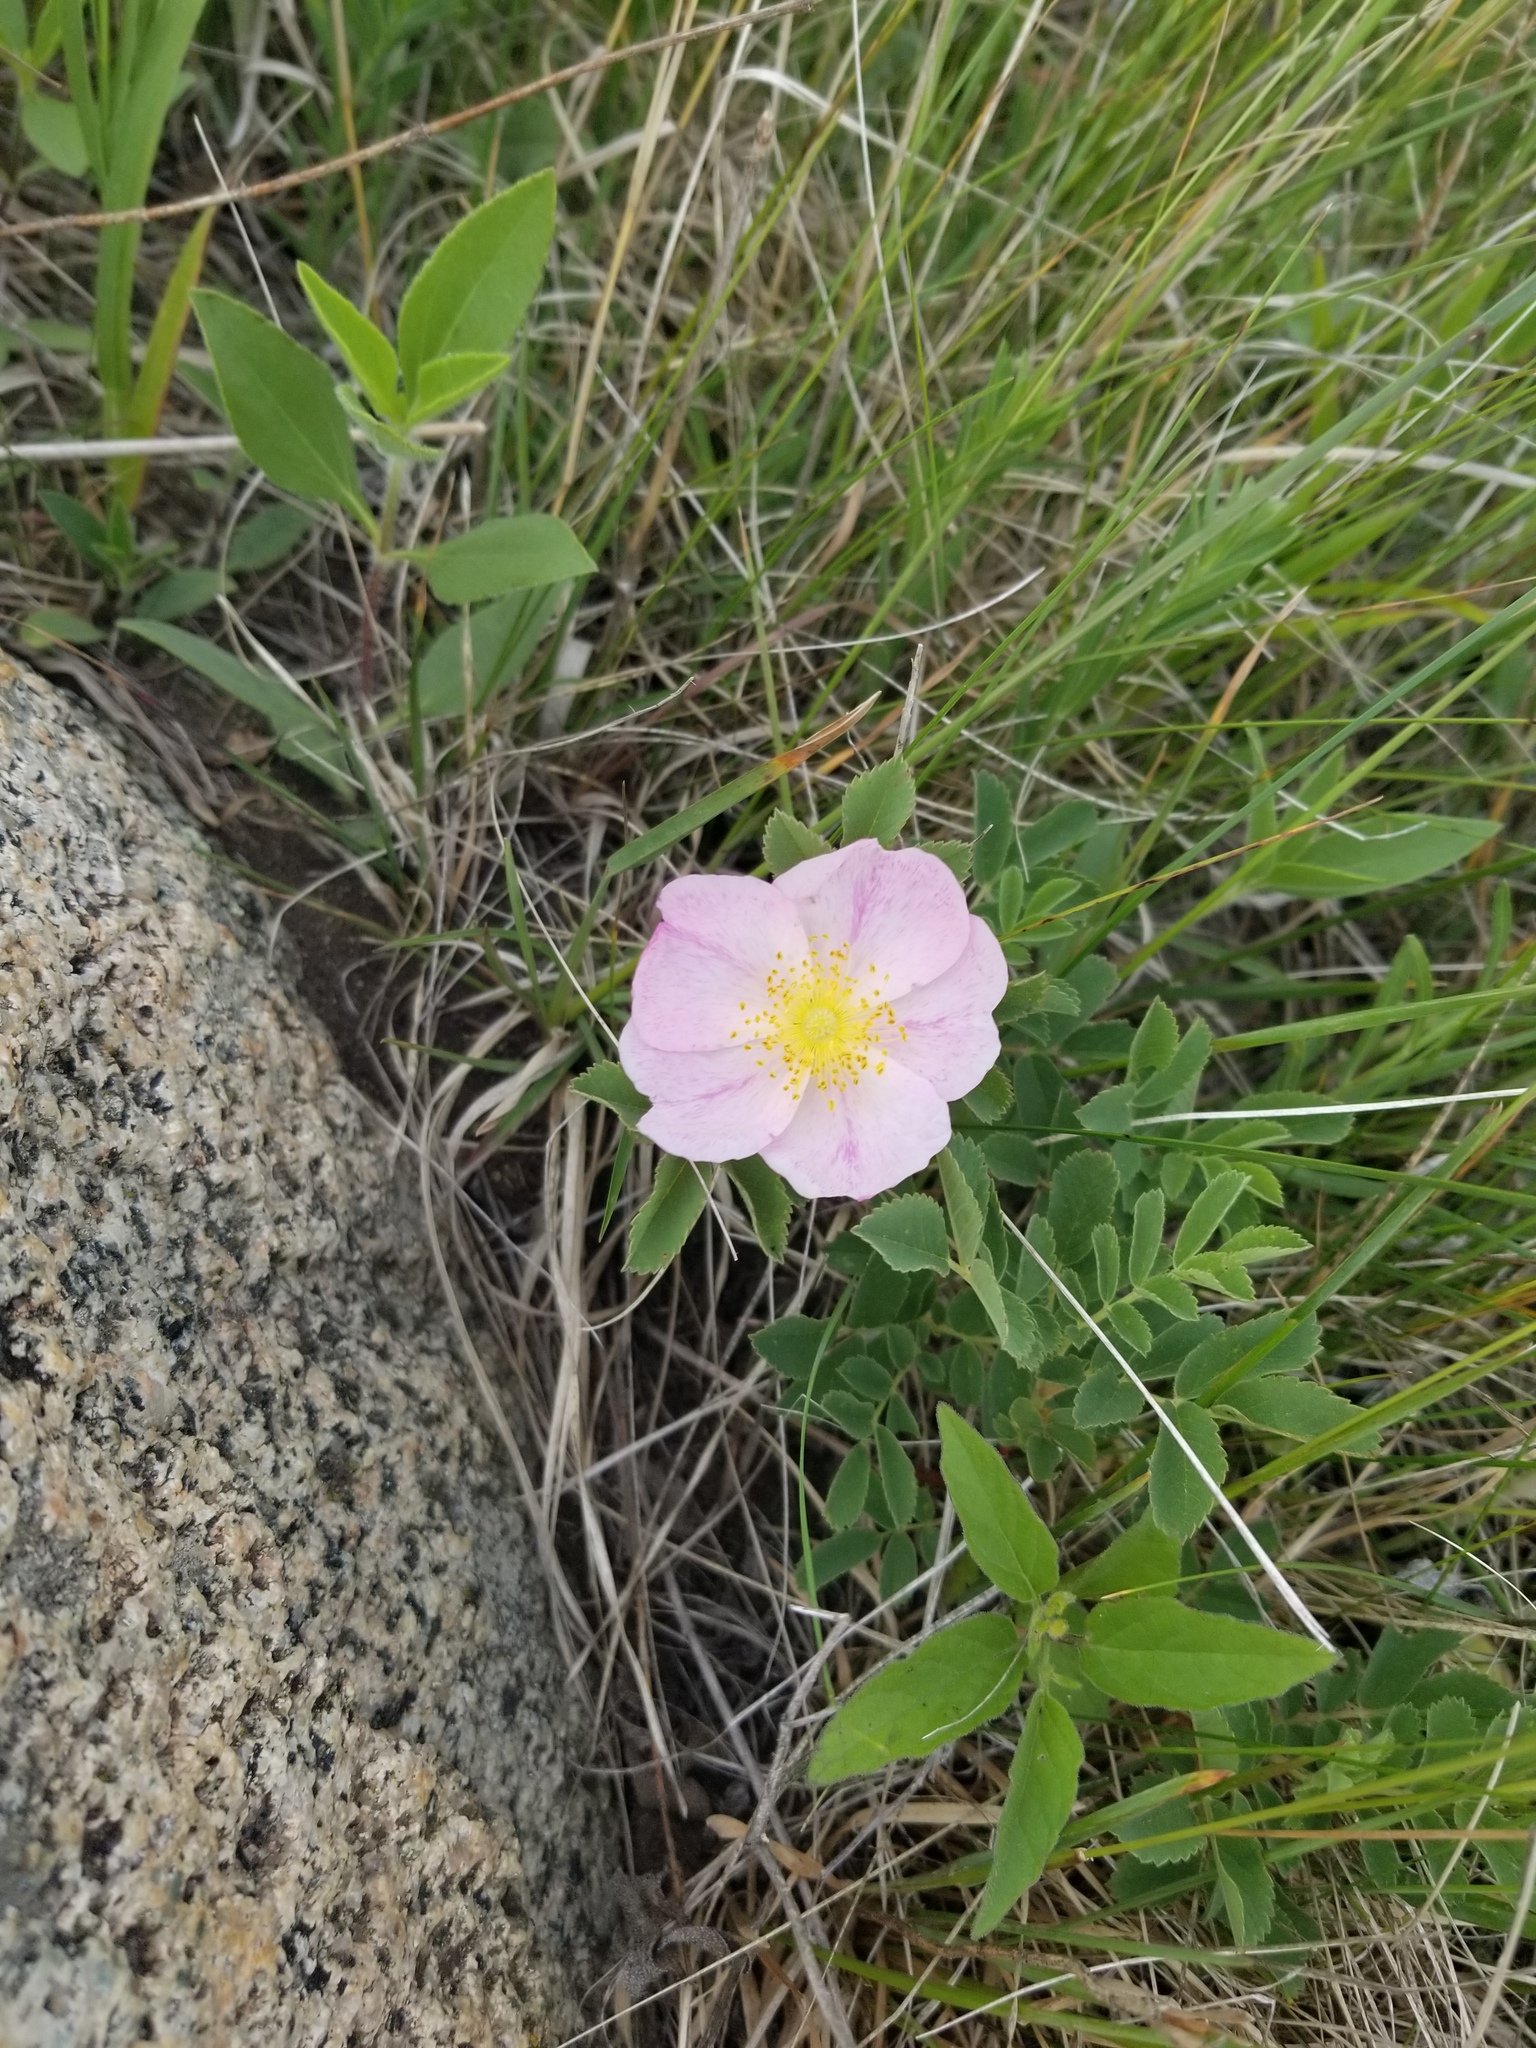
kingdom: Plantae
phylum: Tracheophyta
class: Magnoliopsida
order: Rosales
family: Rosaceae
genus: Rosa
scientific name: Rosa arkansana
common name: Prairie rose
